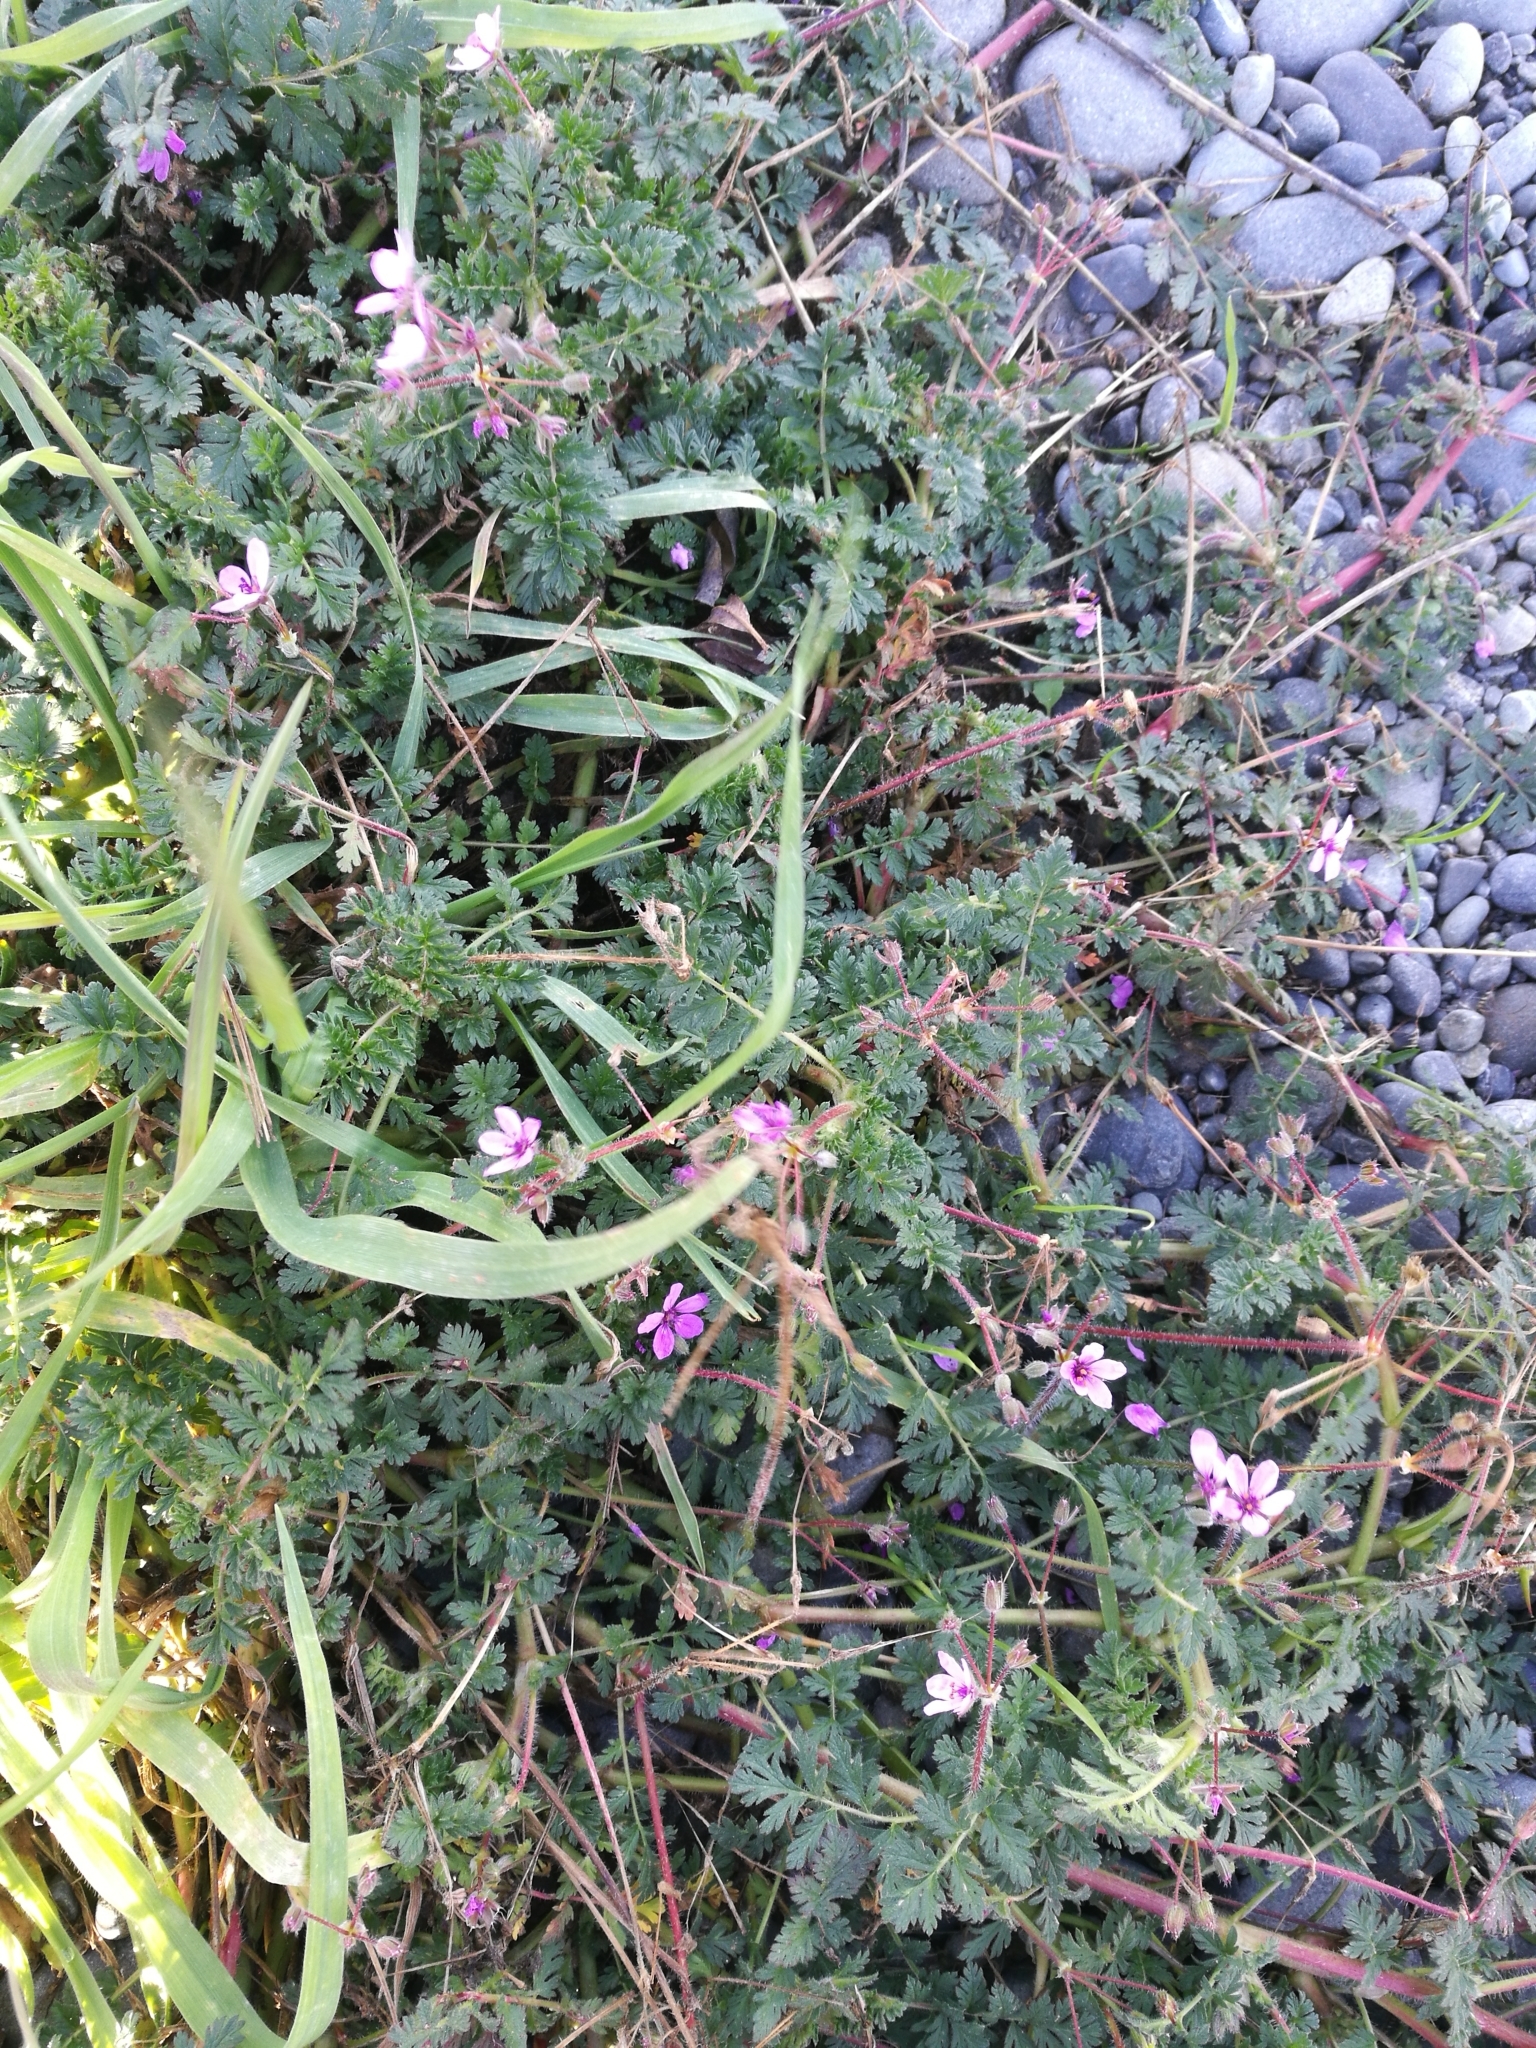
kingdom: Plantae
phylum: Tracheophyta
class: Magnoliopsida
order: Geraniales
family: Geraniaceae
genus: Erodium
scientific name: Erodium cicutarium
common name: Common stork's-bill
